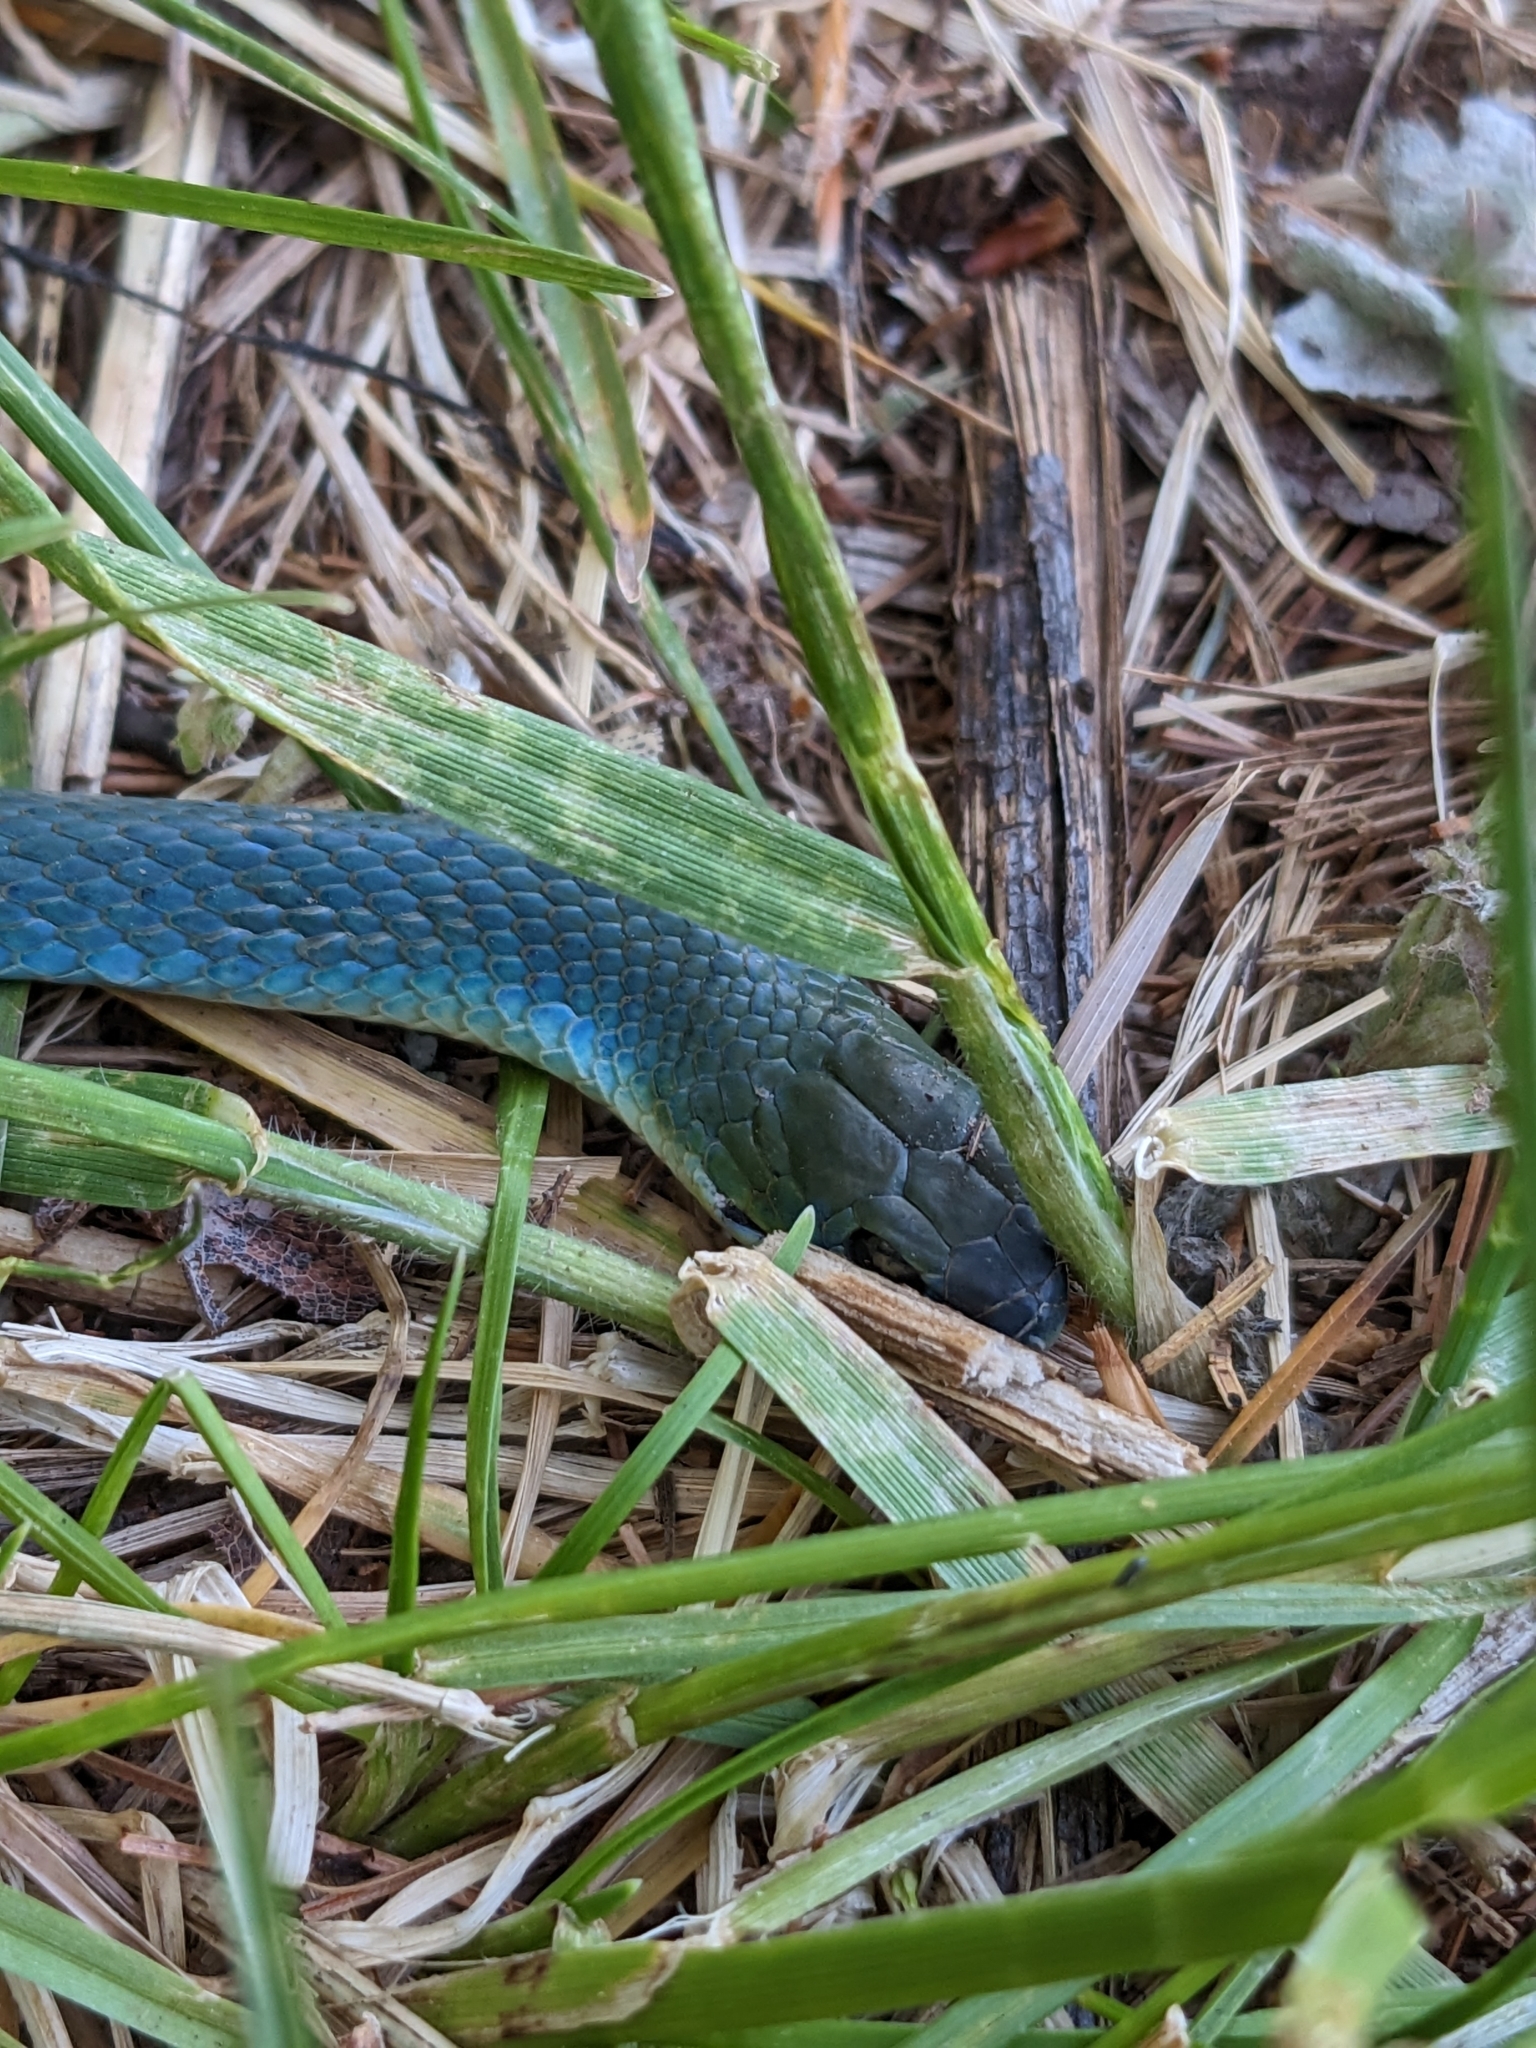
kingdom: Animalia
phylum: Chordata
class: Squamata
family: Colubridae
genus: Opheodrys
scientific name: Opheodrys vernalis
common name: Smooth green snake
